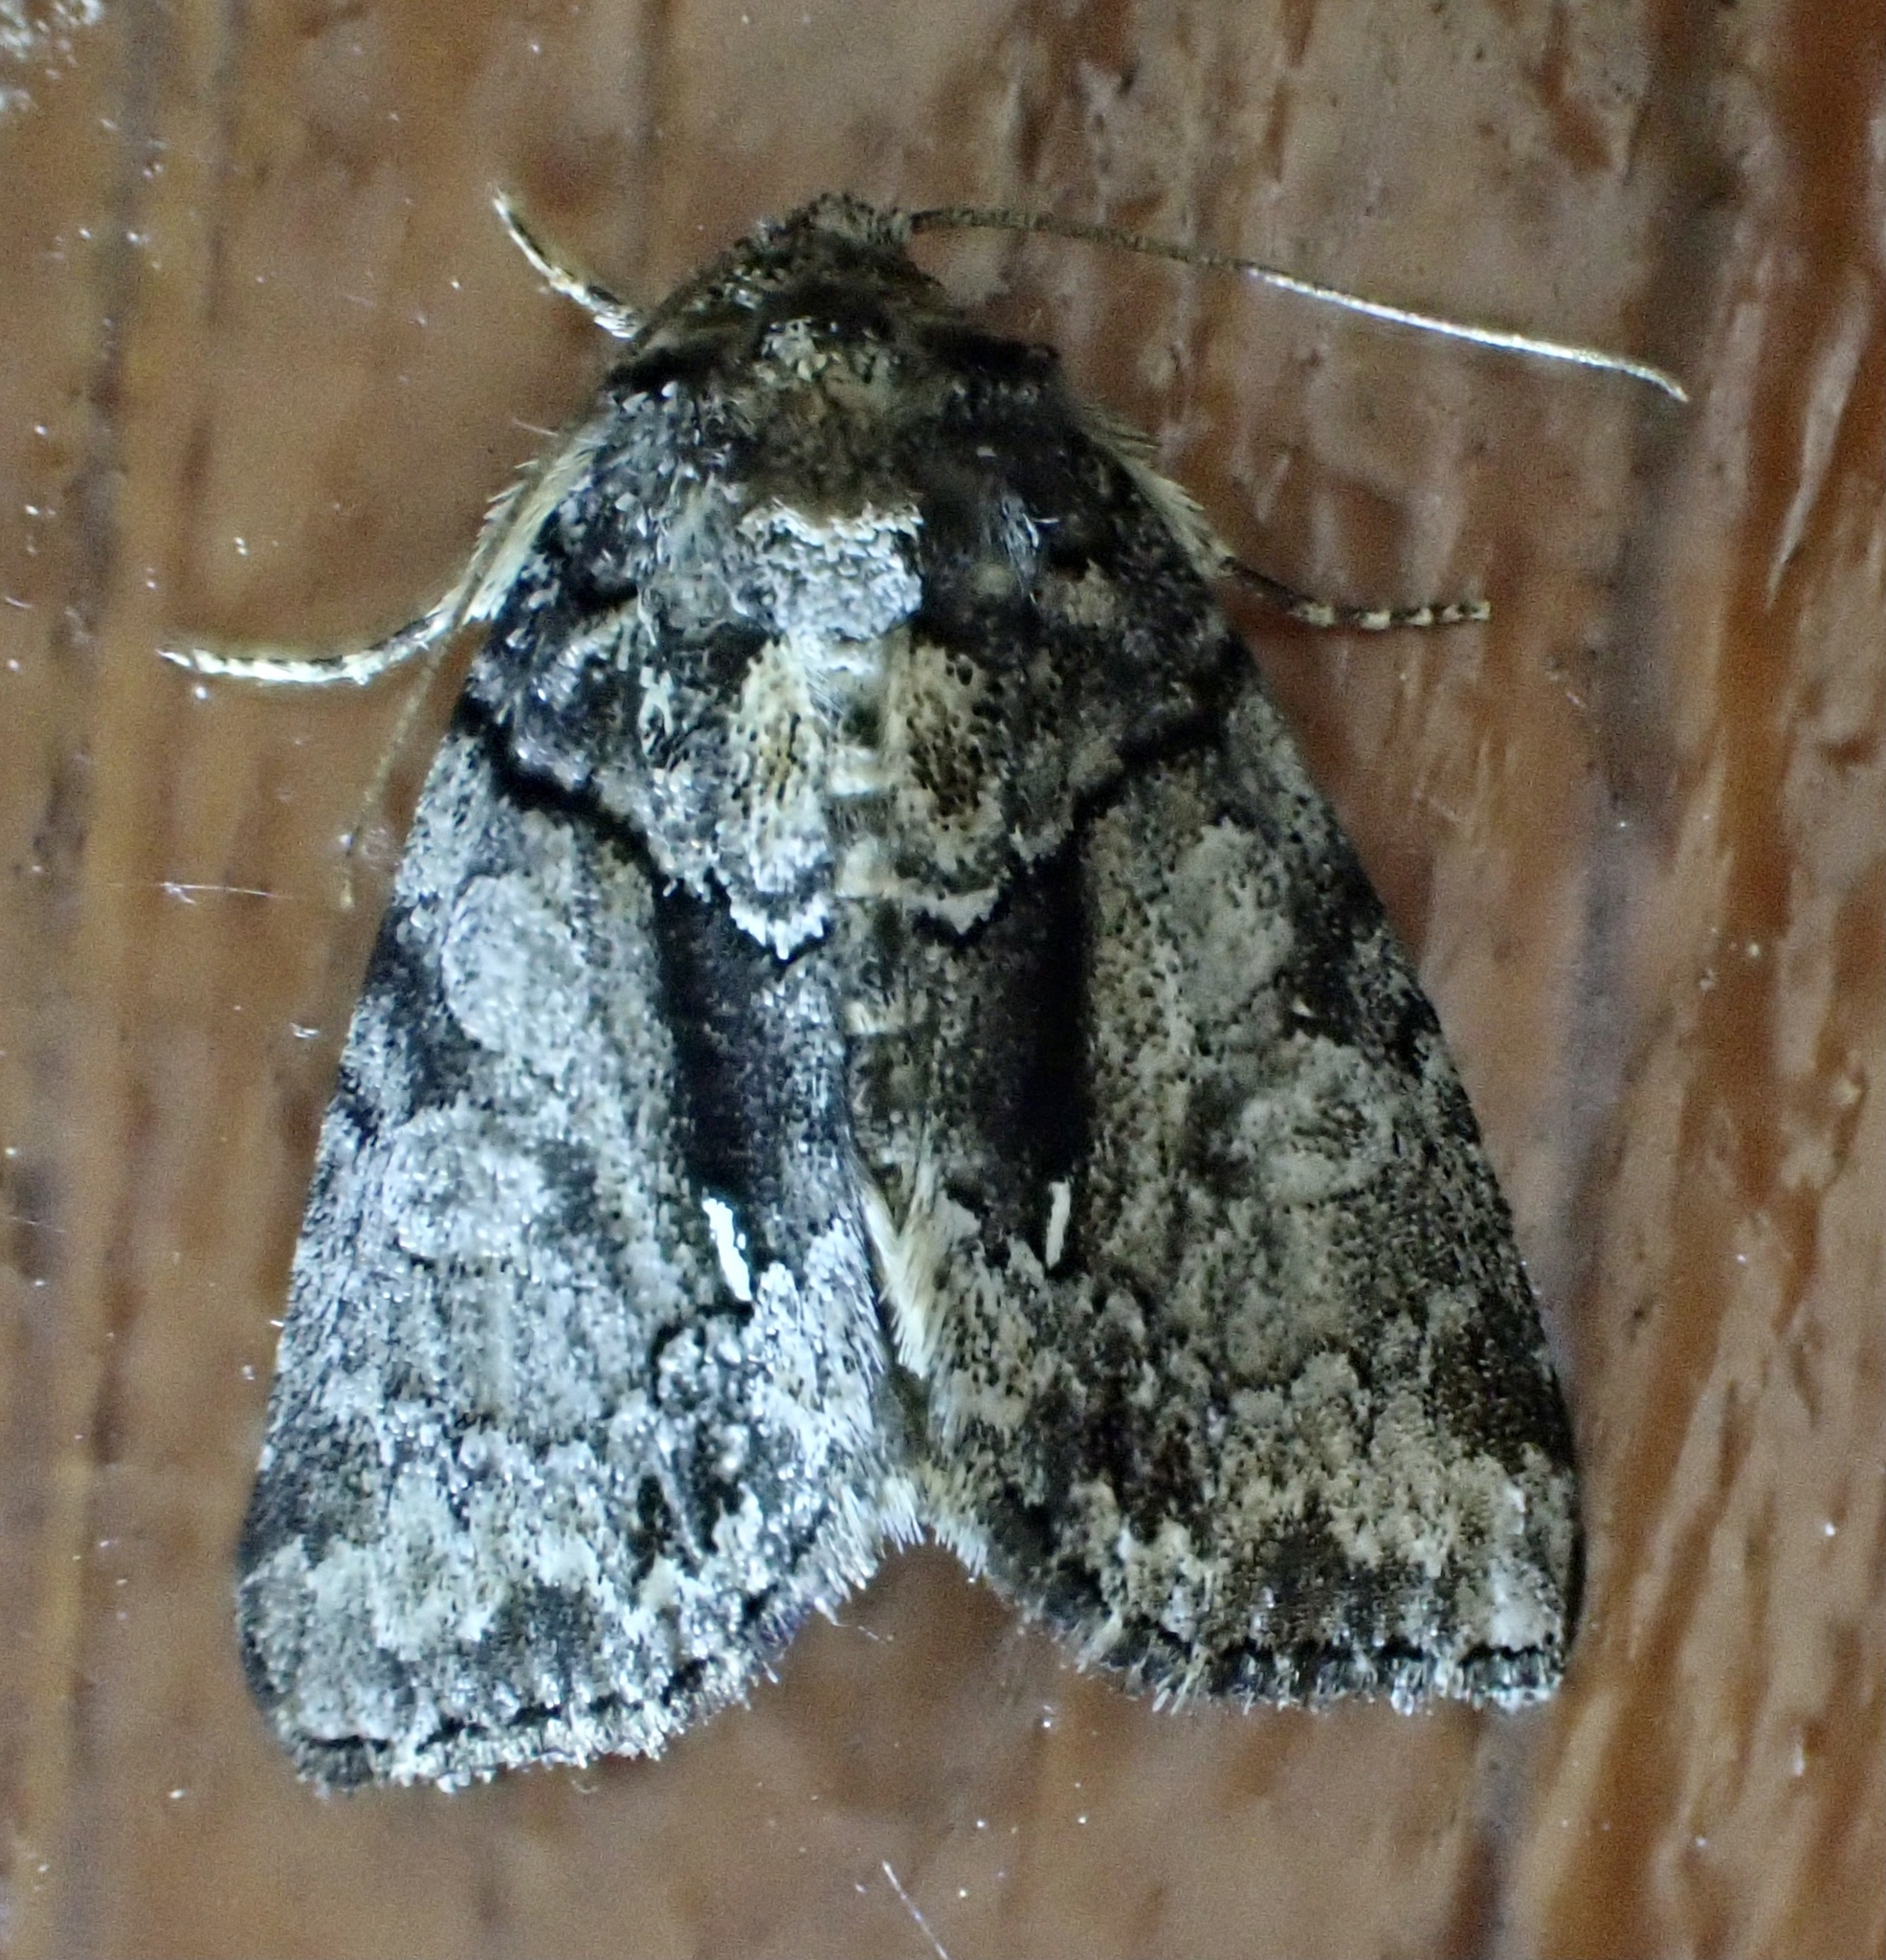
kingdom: Animalia
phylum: Arthropoda
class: Insecta
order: Lepidoptera
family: Noctuidae
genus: Chytonix
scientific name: Chytonix palliatricula
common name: Cloaked marvel
